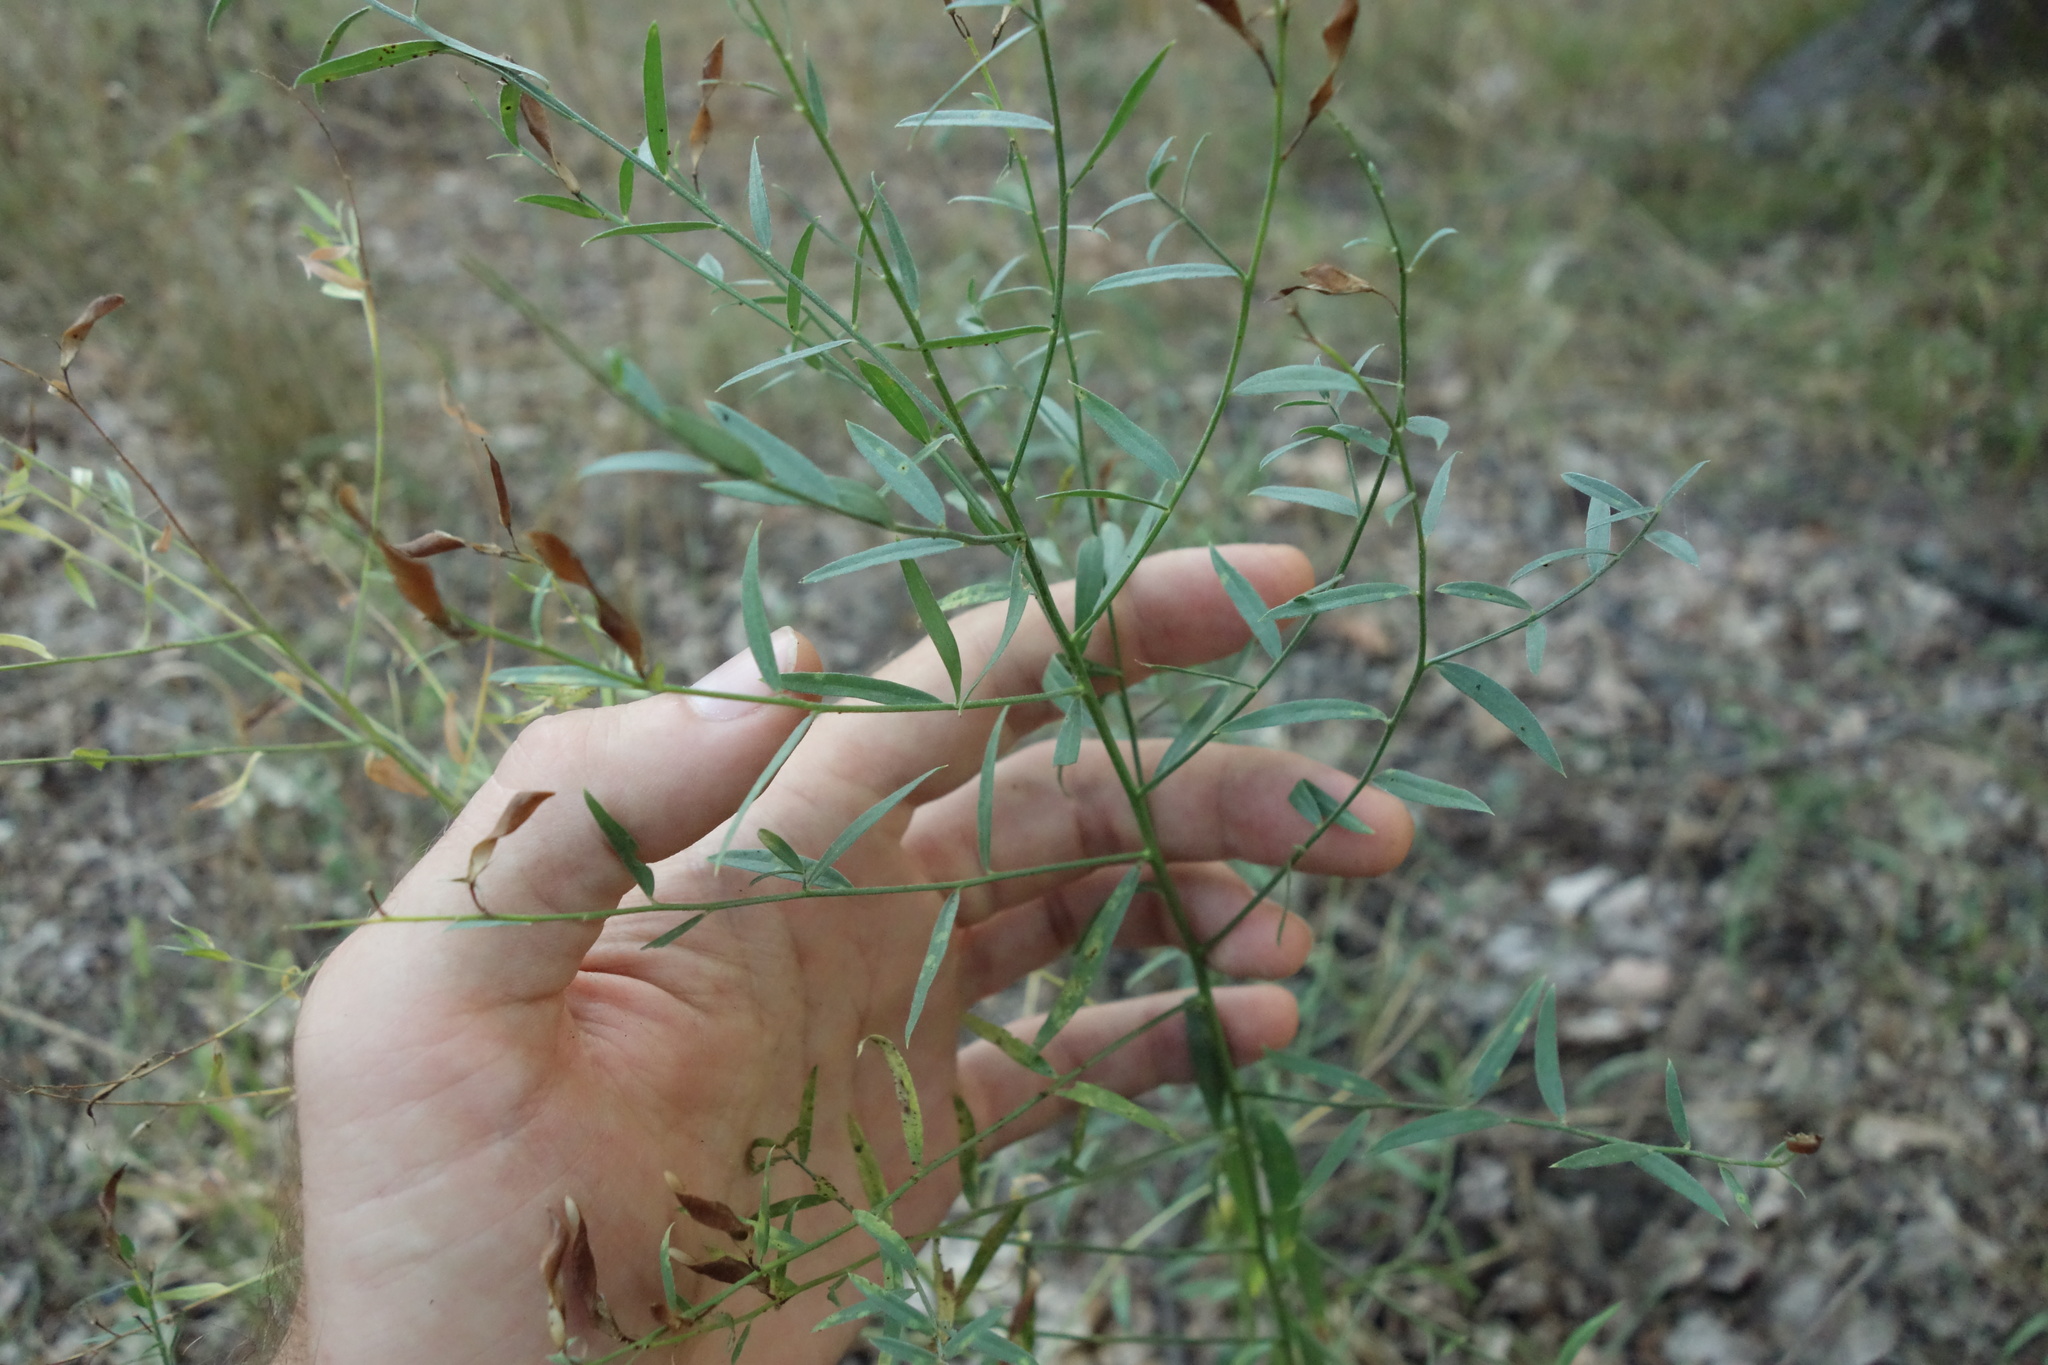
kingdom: Plantae
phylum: Tracheophyta
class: Magnoliopsida
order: Fabales
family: Fabaceae
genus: Genista
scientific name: Genista tinctoria
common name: Dyer's greenweed
